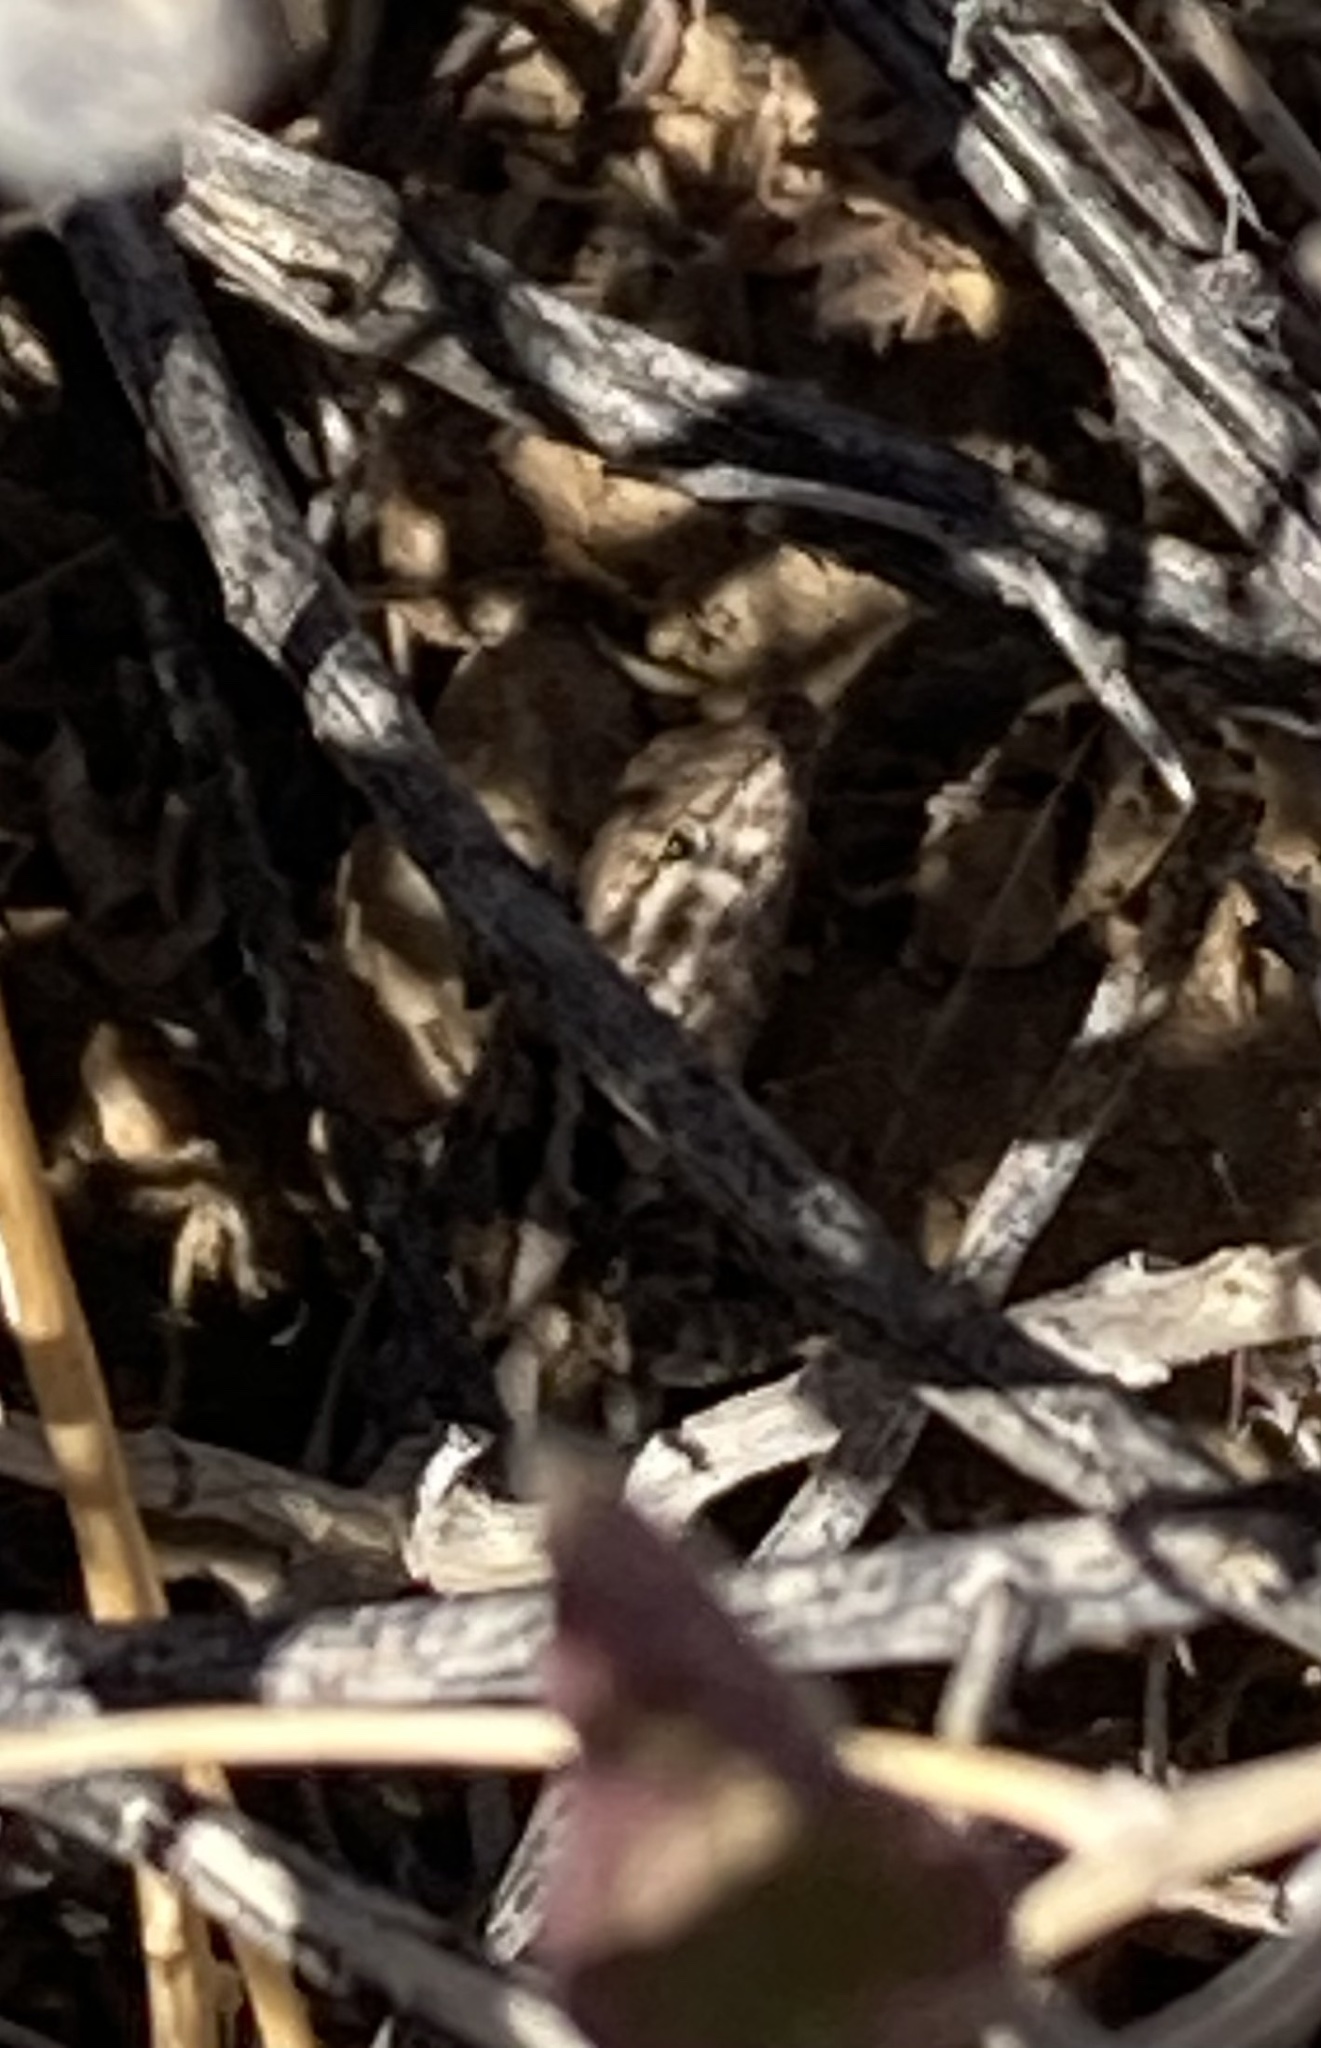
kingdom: Animalia
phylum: Chordata
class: Squamata
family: Phrynosomatidae
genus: Uta
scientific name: Uta stansburiana
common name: Side-blotched lizard
